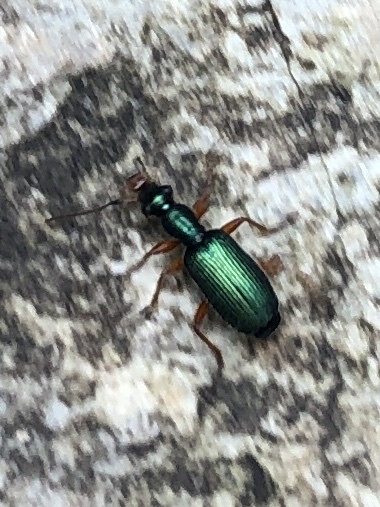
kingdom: Animalia
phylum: Arthropoda
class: Insecta
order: Coleoptera
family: Carabidae
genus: Drypta
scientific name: Drypta dentata
